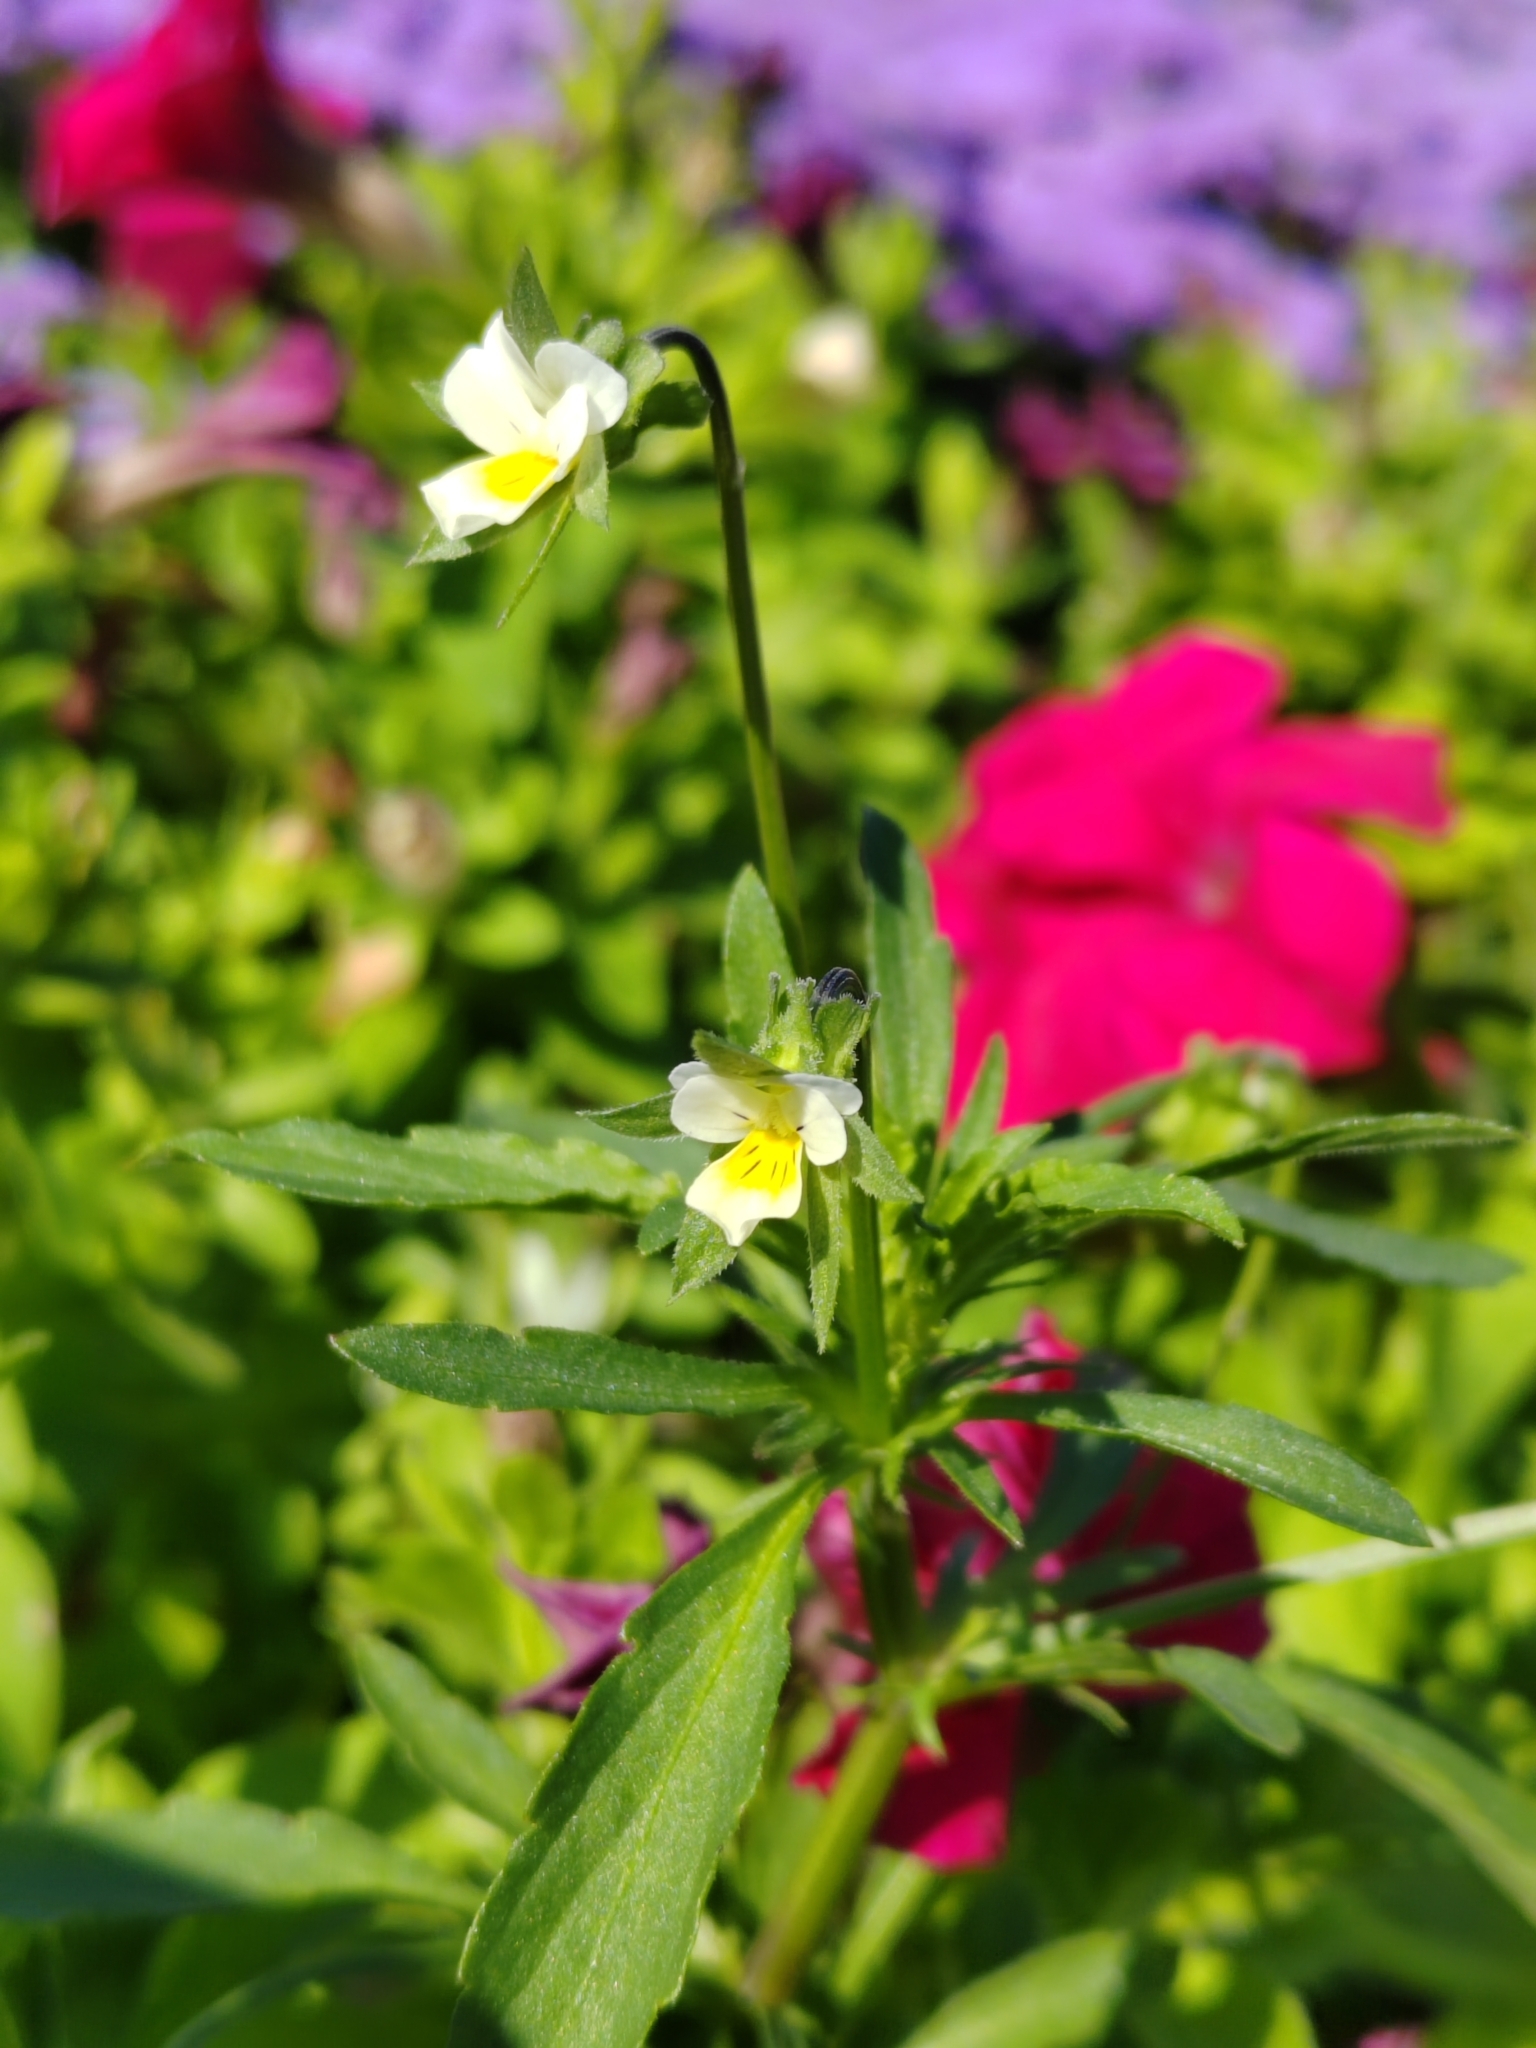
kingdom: Plantae
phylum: Tracheophyta
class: Magnoliopsida
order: Malpighiales
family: Violaceae
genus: Viola
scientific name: Viola arvensis
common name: Field pansy
